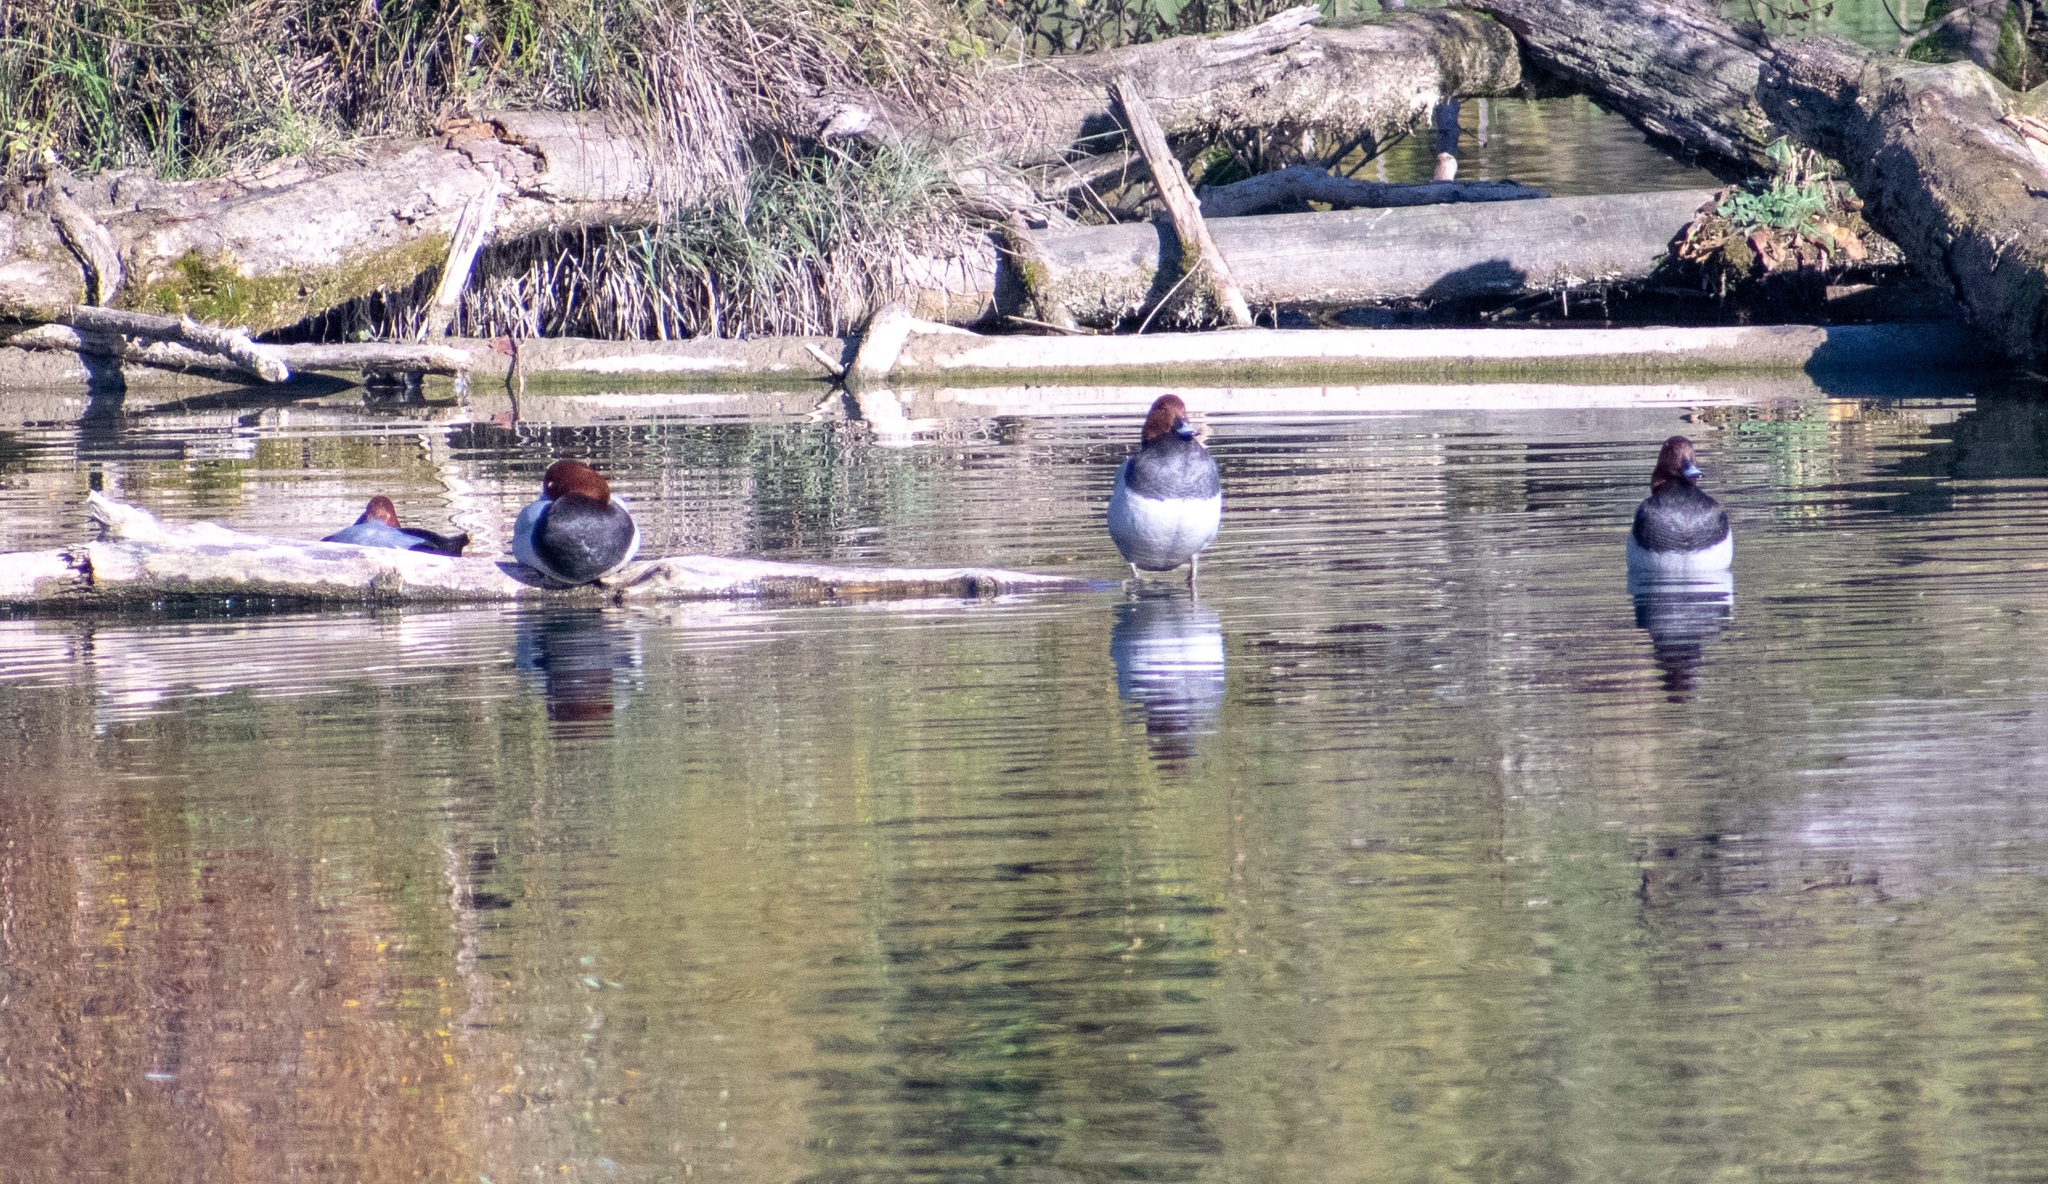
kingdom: Animalia
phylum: Chordata
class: Aves
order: Anseriformes
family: Anatidae
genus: Aythya
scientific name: Aythya ferina
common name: Common pochard
